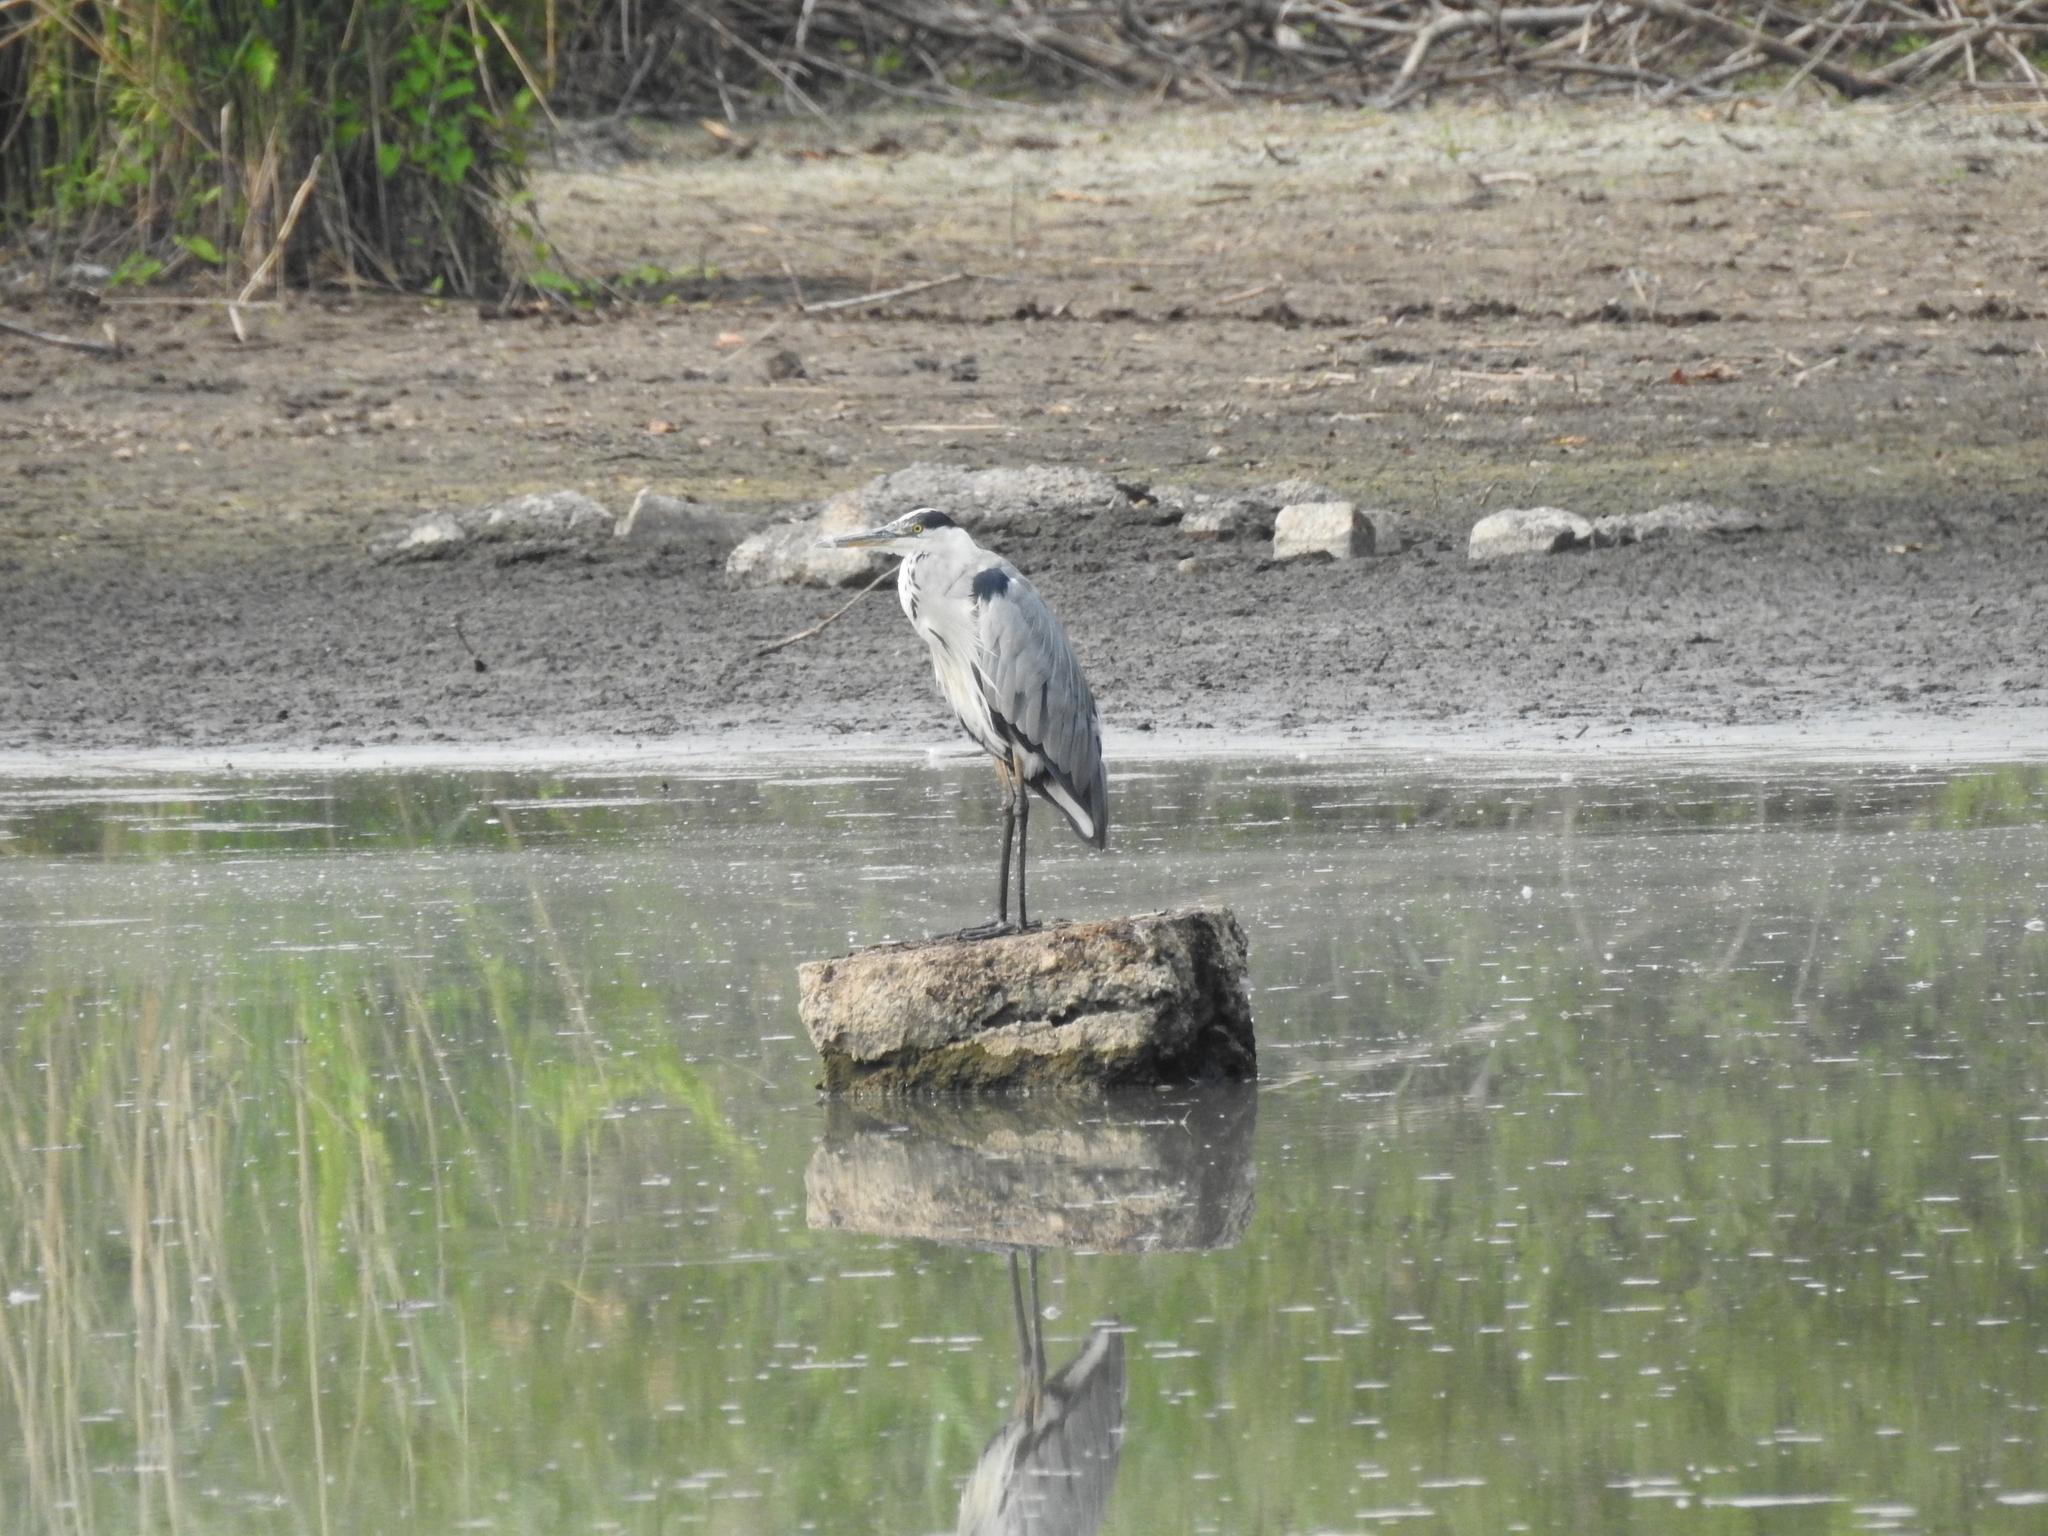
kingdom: Animalia
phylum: Chordata
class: Aves
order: Pelecaniformes
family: Ardeidae
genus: Ardea
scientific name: Ardea cinerea
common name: Grey heron
